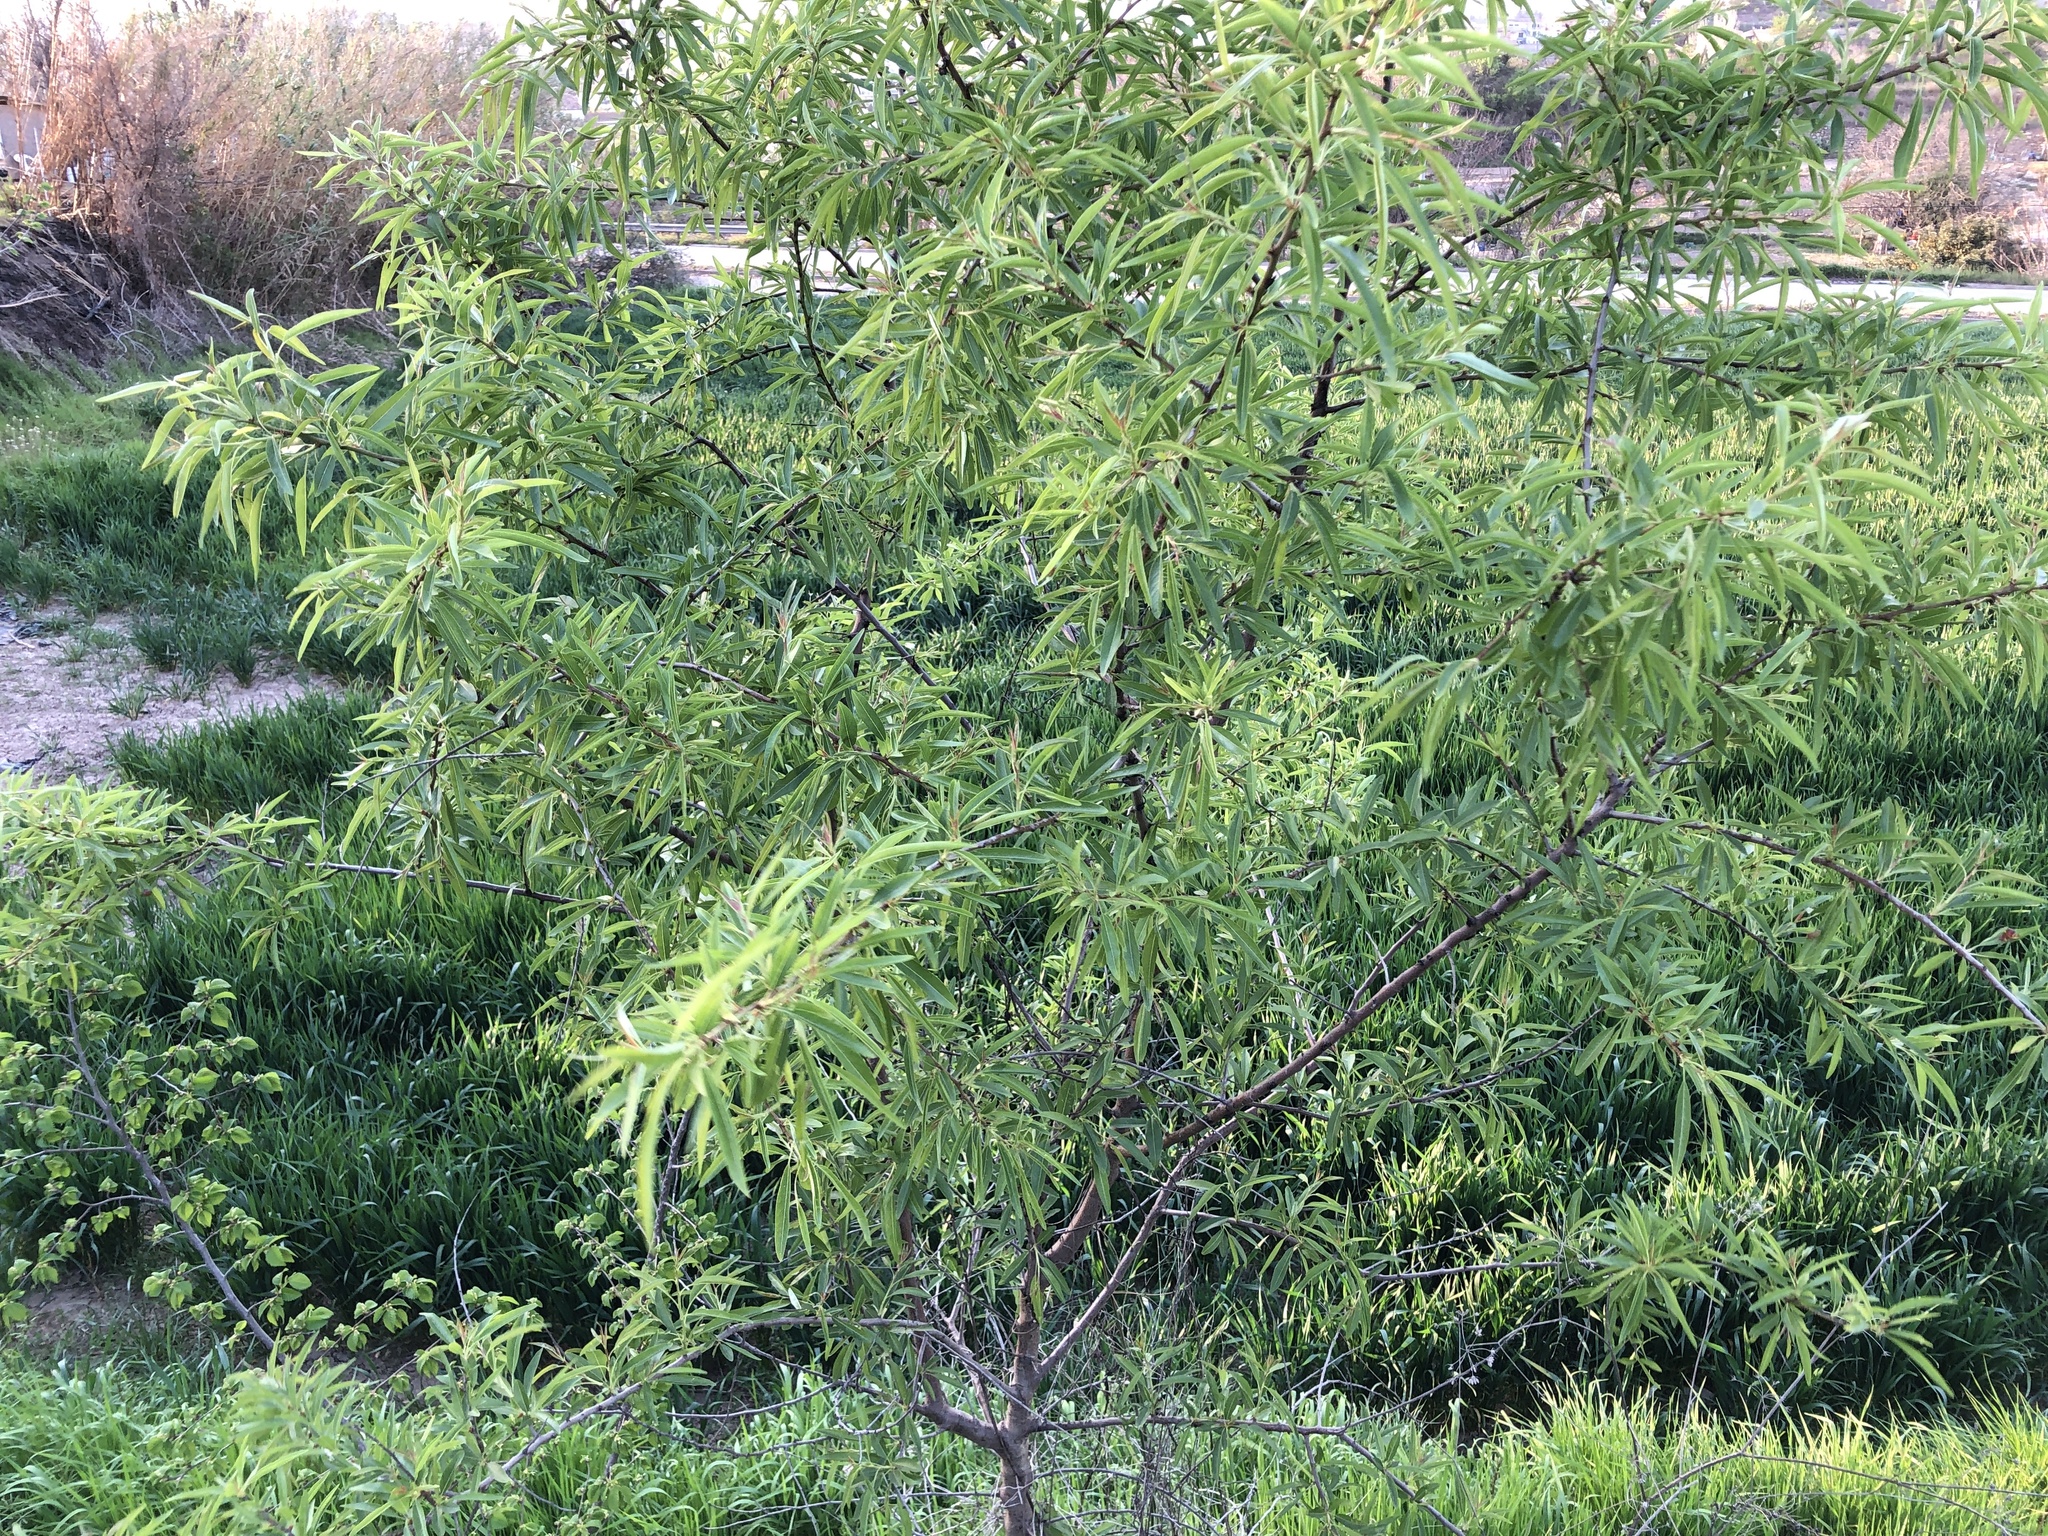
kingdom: Plantae
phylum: Tracheophyta
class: Magnoliopsida
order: Rosales
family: Rosaceae
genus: Prunus
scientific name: Prunus amygdalus
